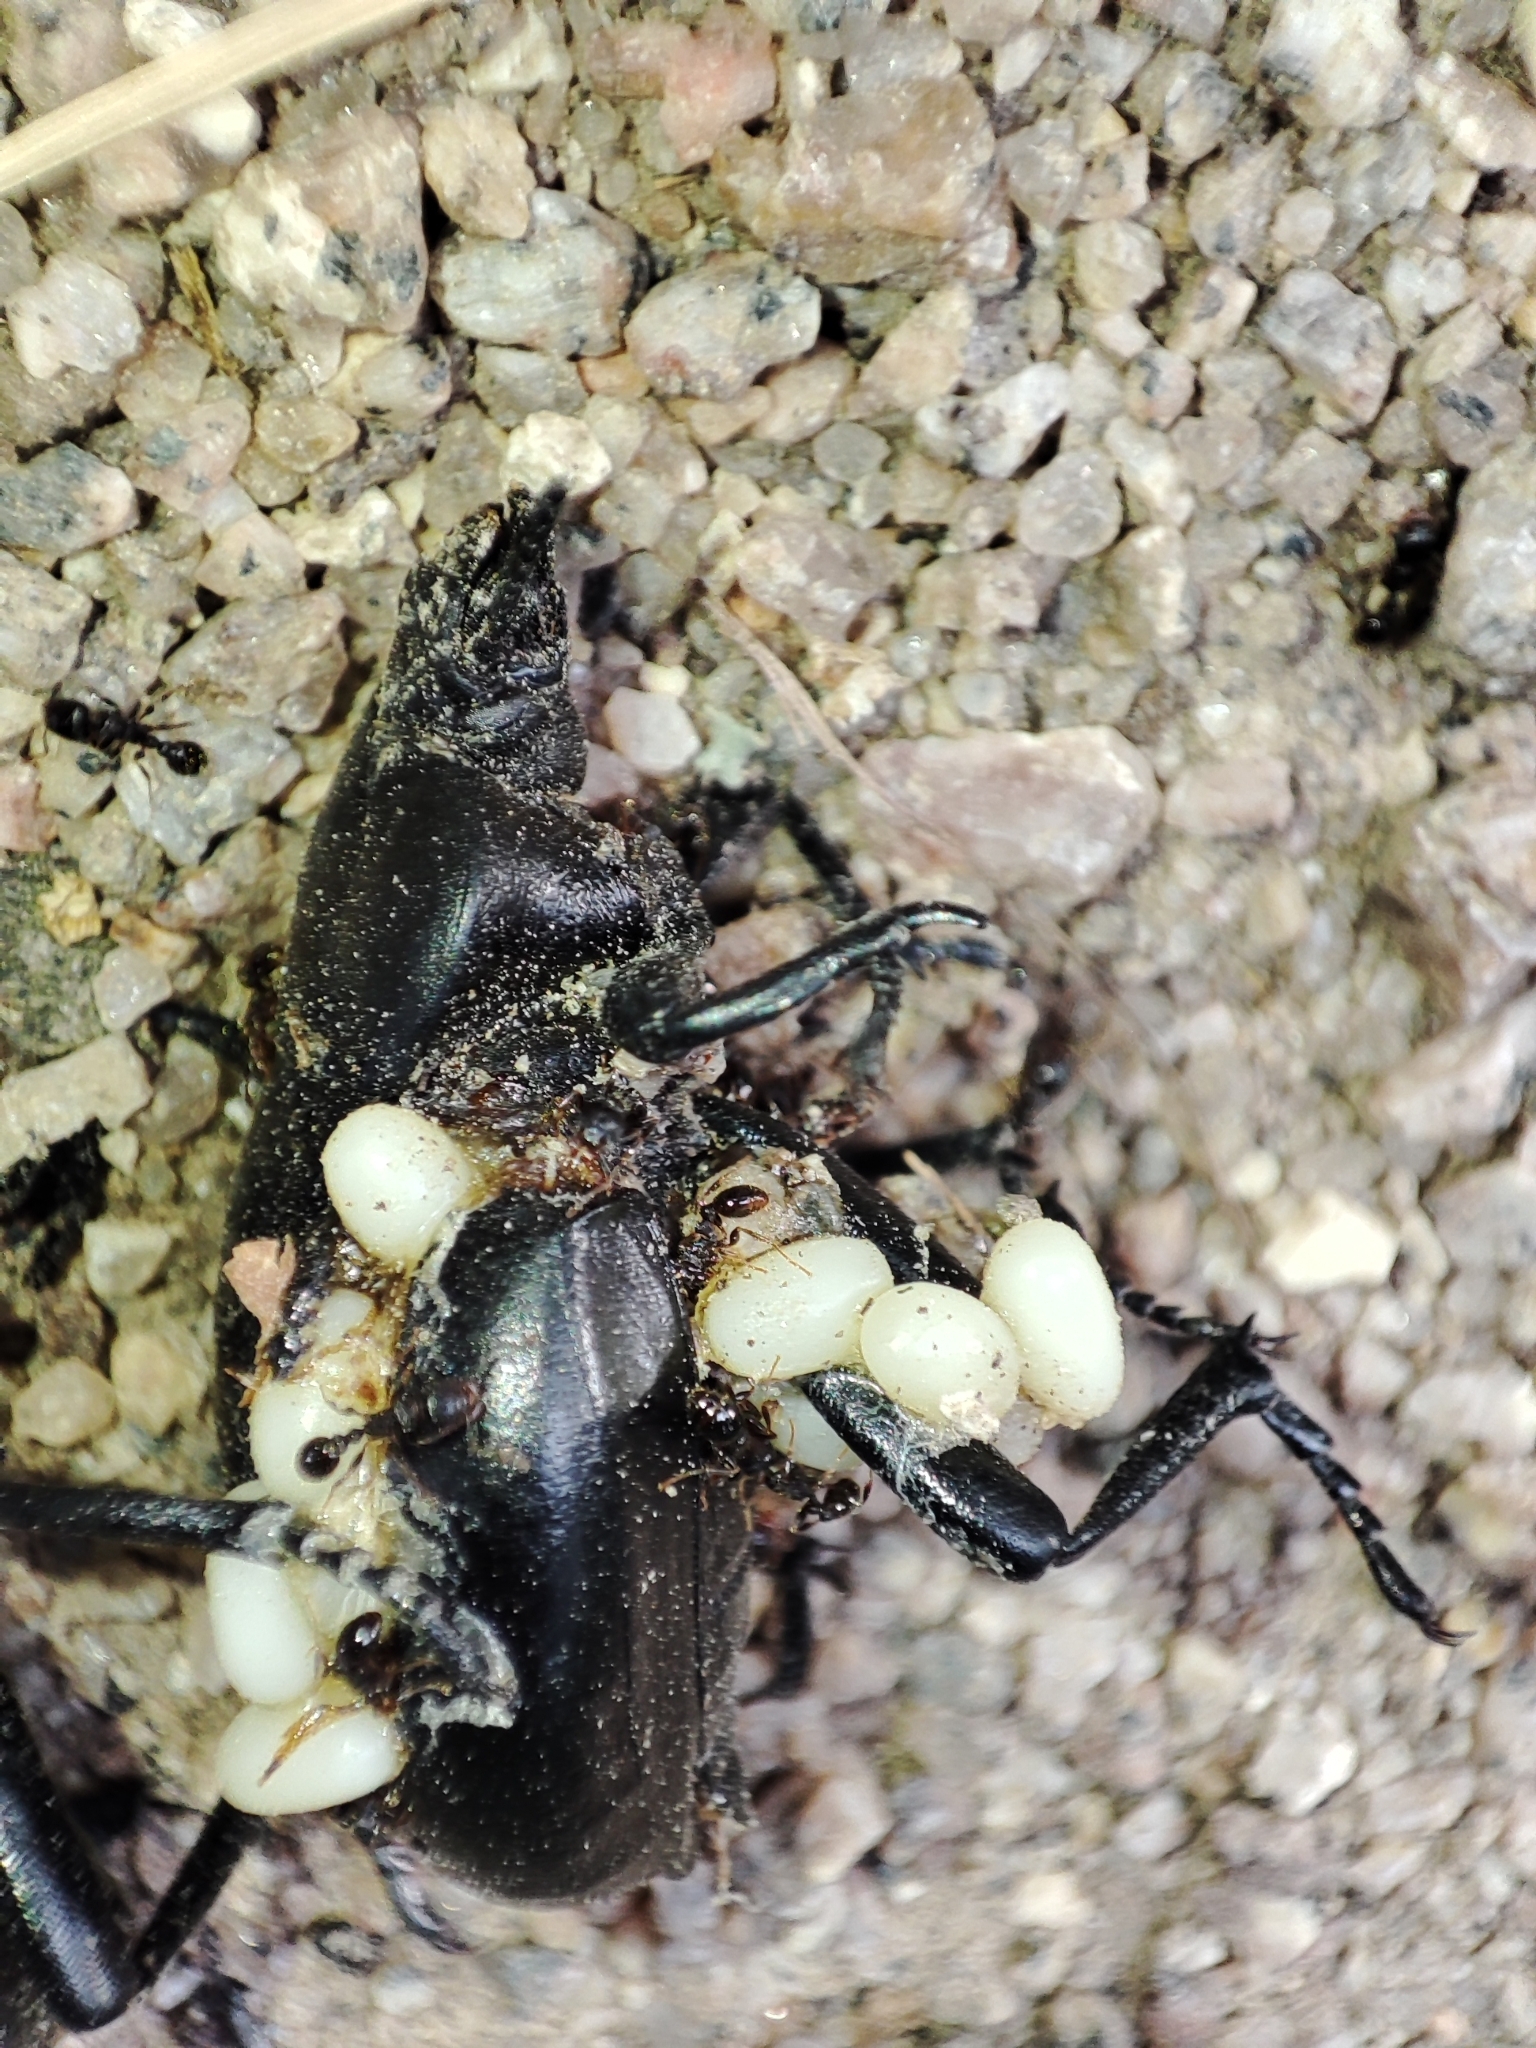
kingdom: Animalia
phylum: Arthropoda
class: Insecta
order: Coleoptera
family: Tenebrionidae
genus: Gnaptor
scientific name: Gnaptor spinimanus
